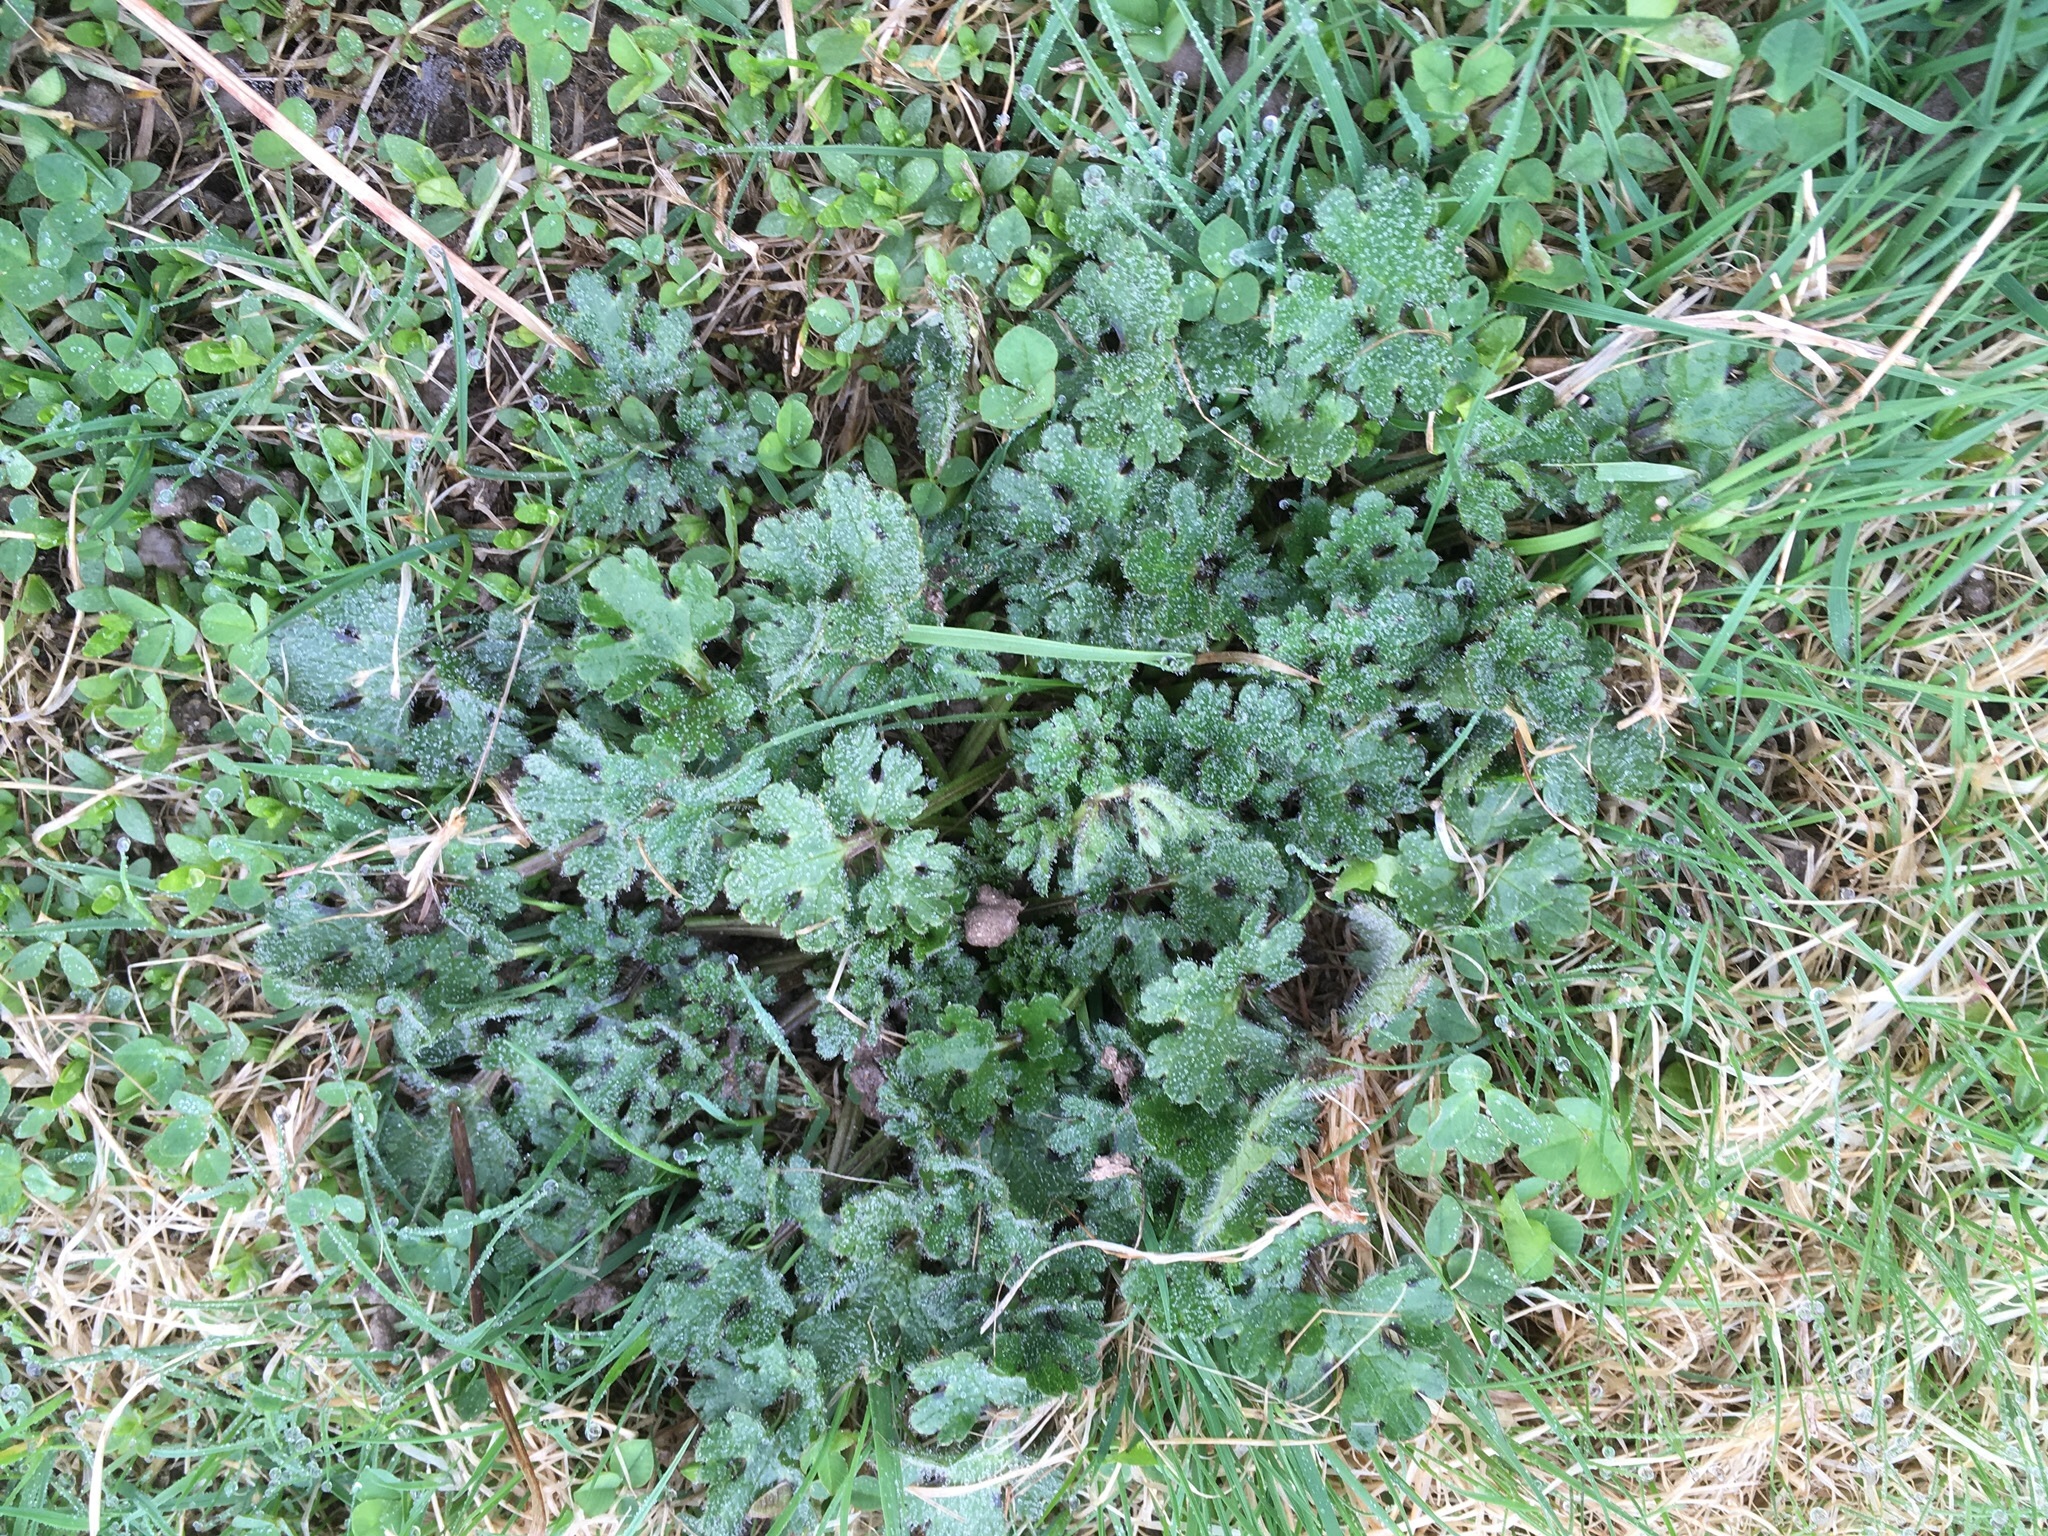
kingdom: Plantae
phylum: Tracheophyta
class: Magnoliopsida
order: Ranunculales
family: Ranunculaceae
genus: Ranunculus
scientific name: Ranunculus bulbosus
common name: Bulbous buttercup
